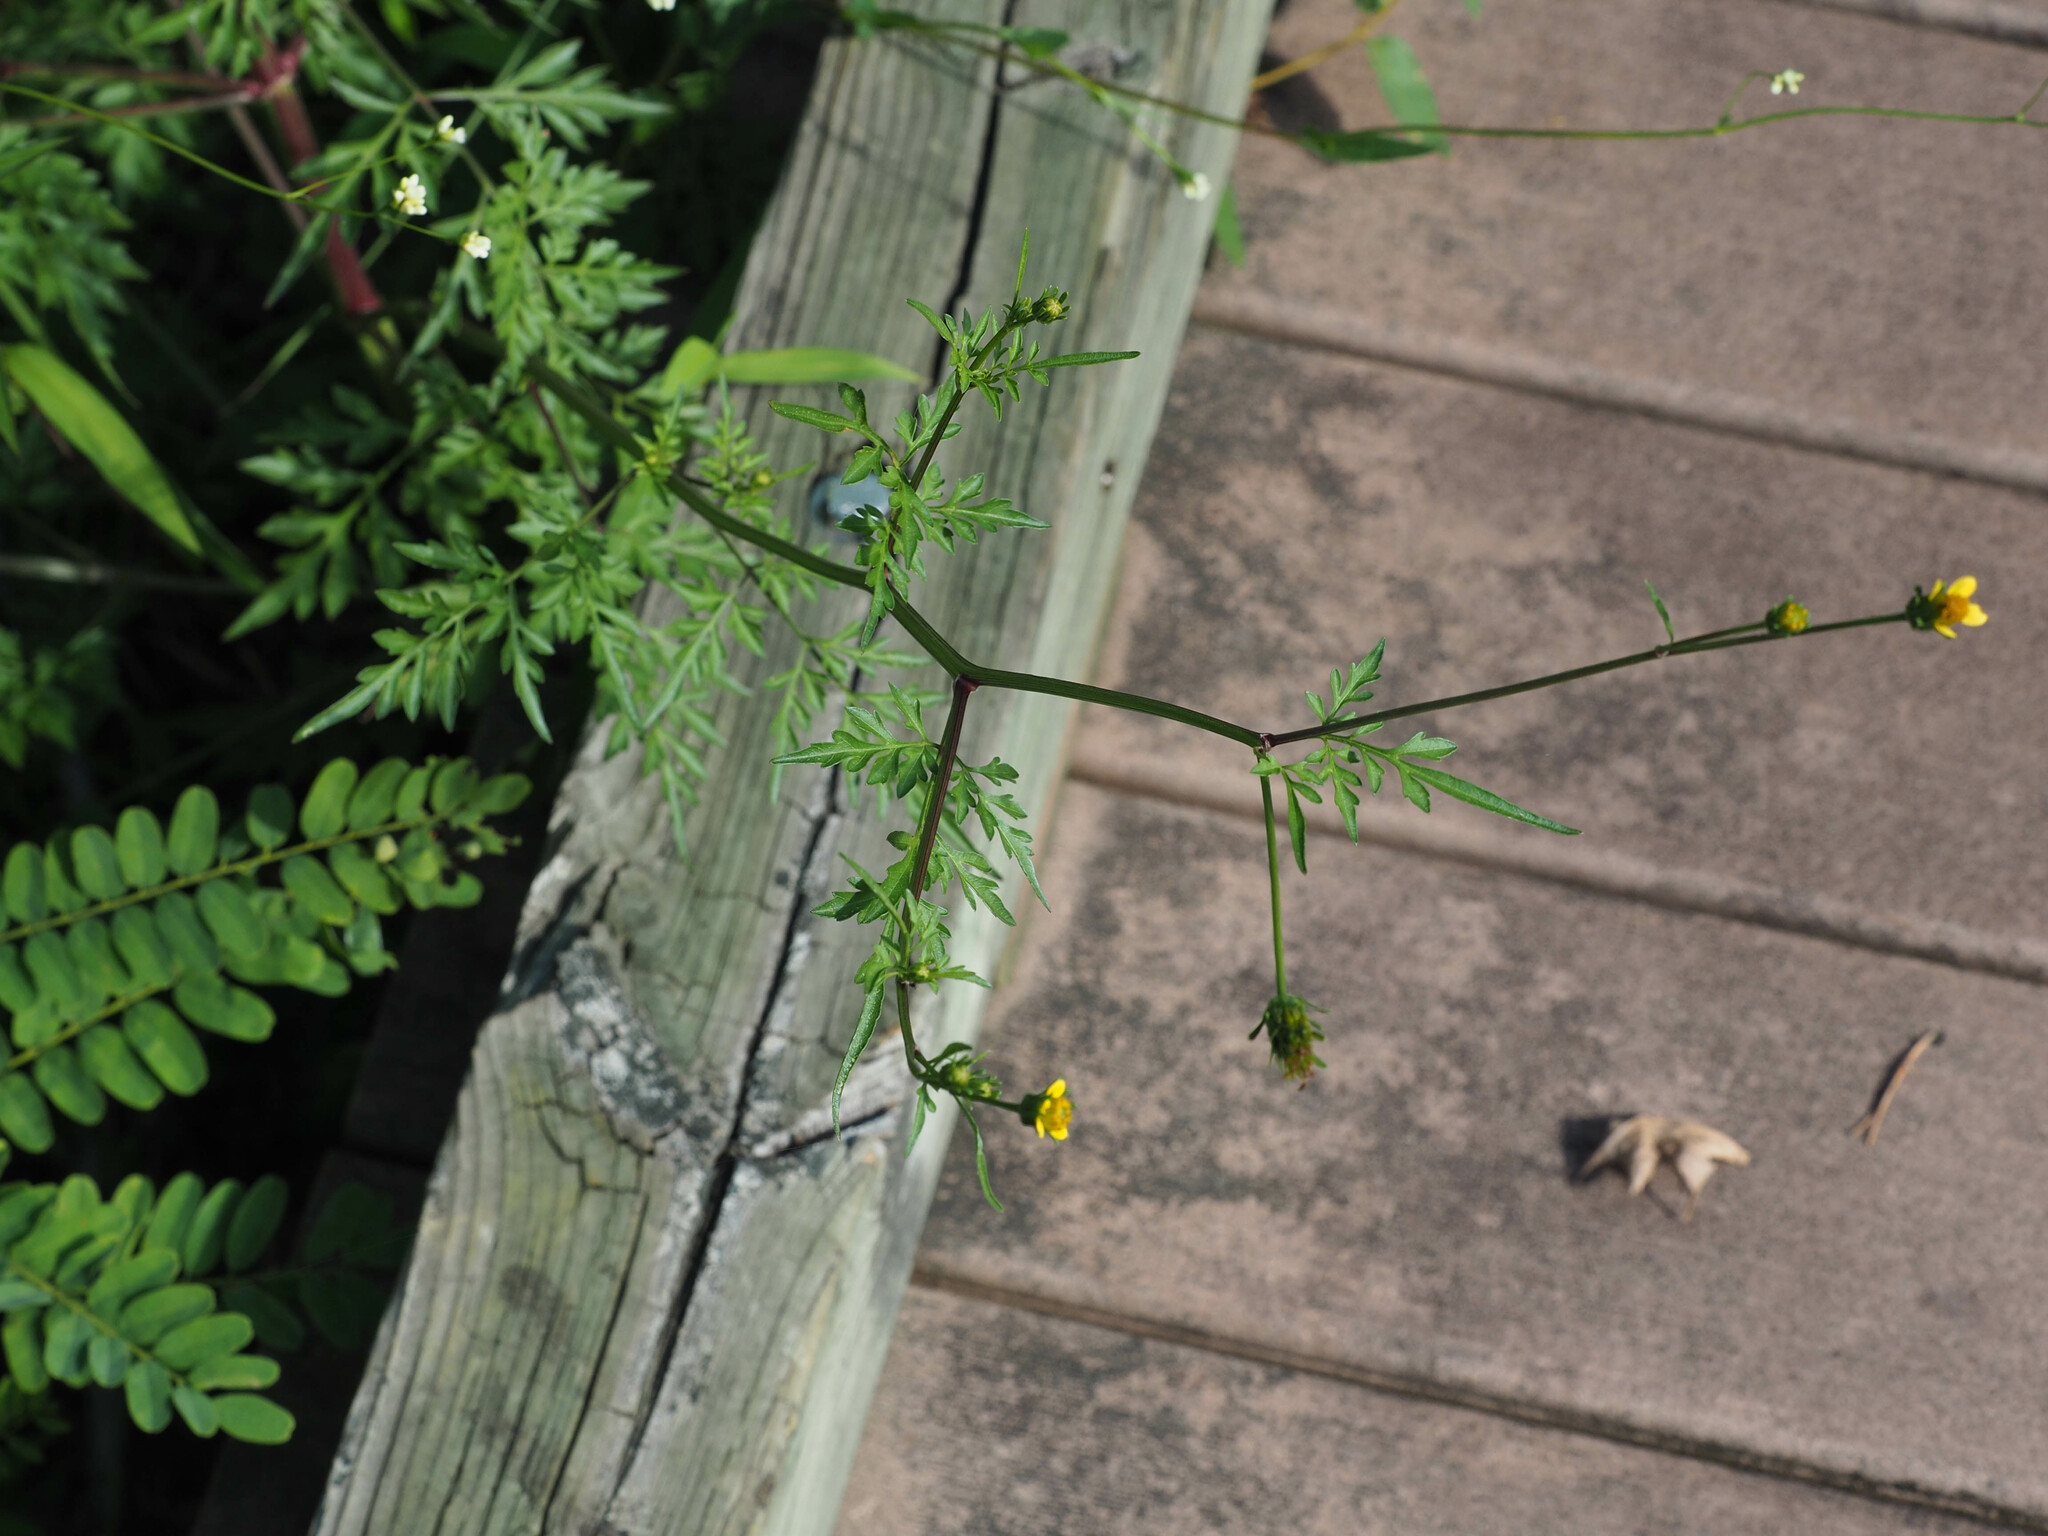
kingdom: Plantae
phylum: Tracheophyta
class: Magnoliopsida
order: Asterales
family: Asteraceae
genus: Bidens
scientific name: Bidens bipinnata
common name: Spanish-needles
